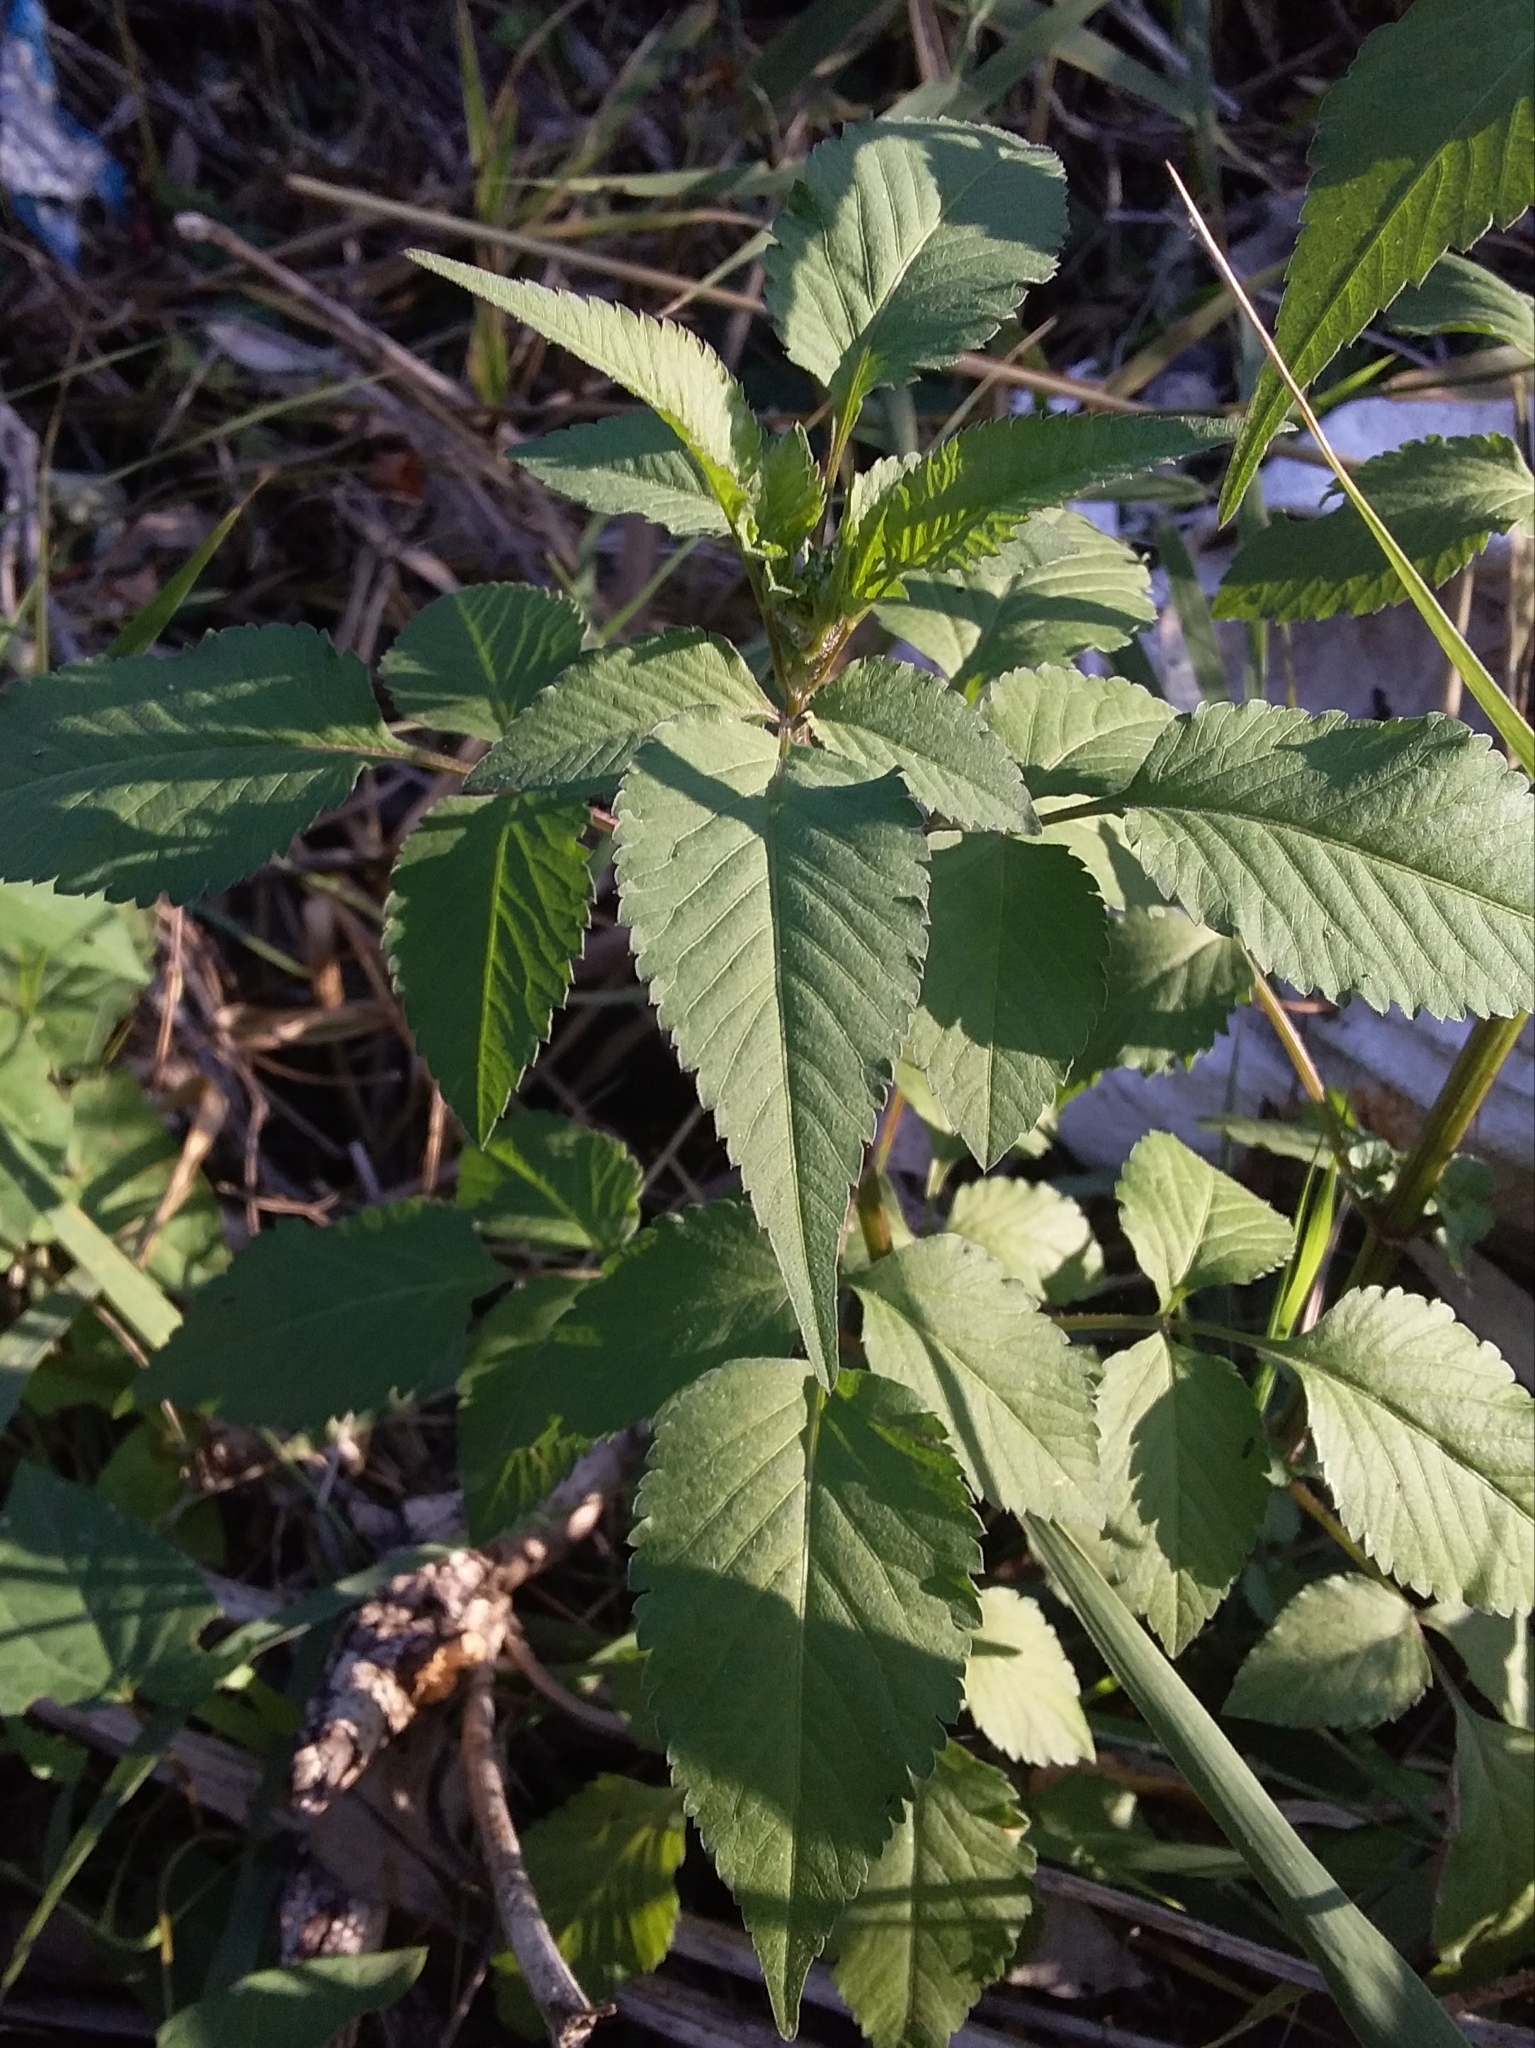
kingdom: Plantae
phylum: Tracheophyta
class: Magnoliopsida
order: Asterales
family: Asteraceae
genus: Bidens
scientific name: Bidens pilosa
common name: Black-jack
